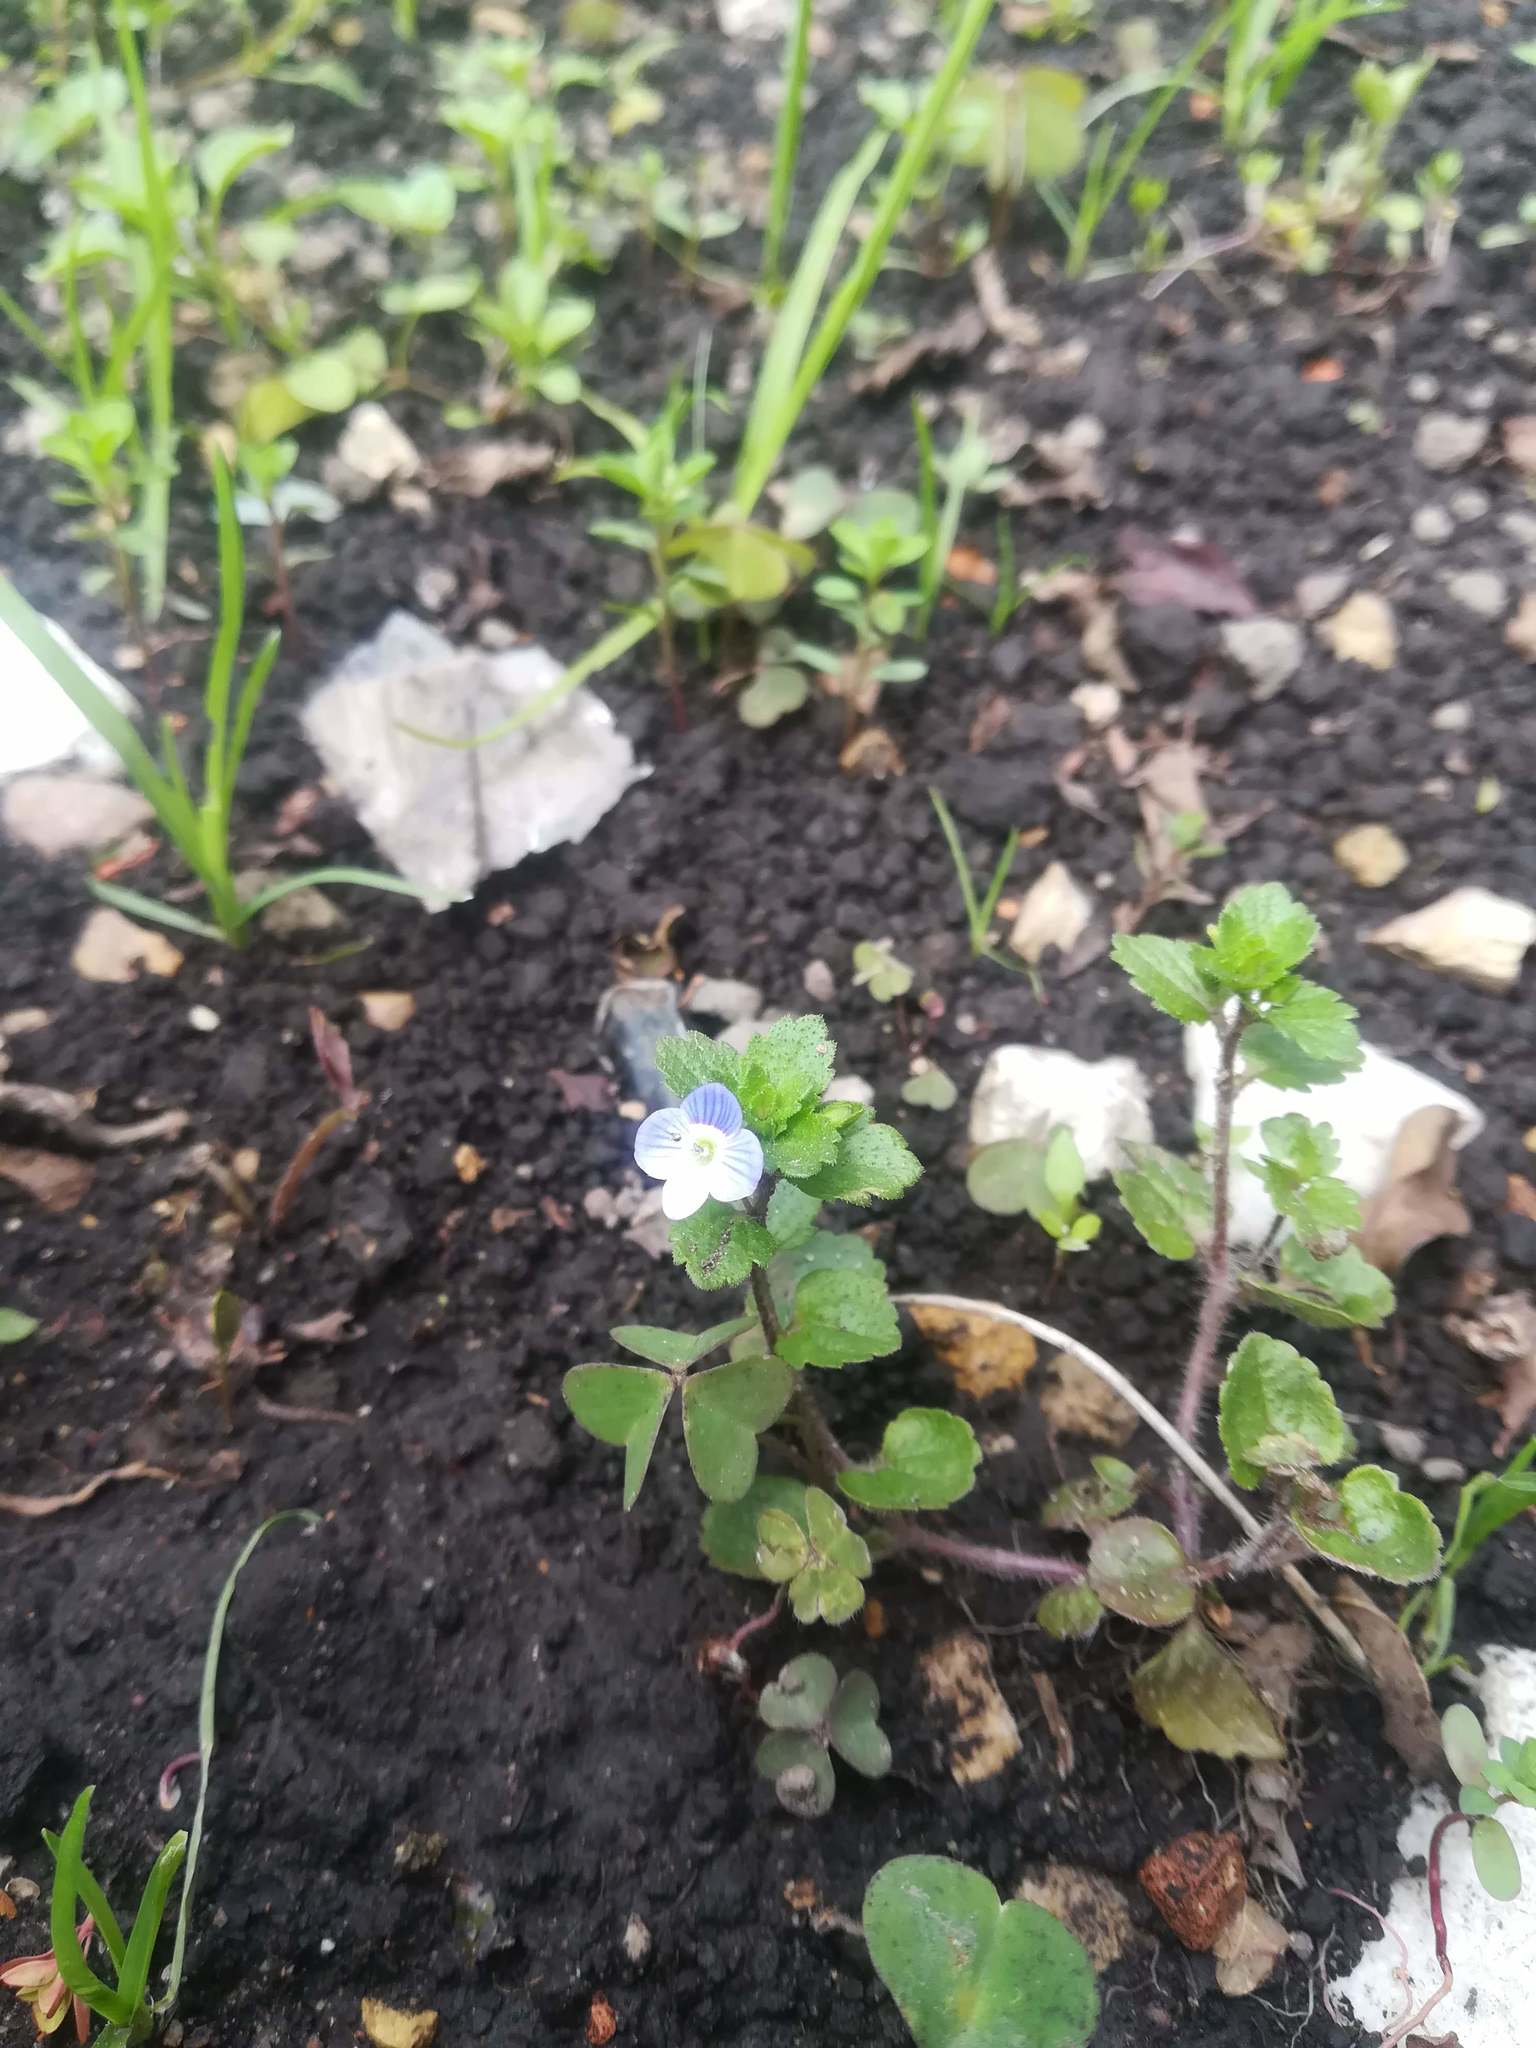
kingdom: Plantae
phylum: Tracheophyta
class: Magnoliopsida
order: Lamiales
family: Plantaginaceae
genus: Veronica
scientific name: Veronica persica
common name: Common field-speedwell
